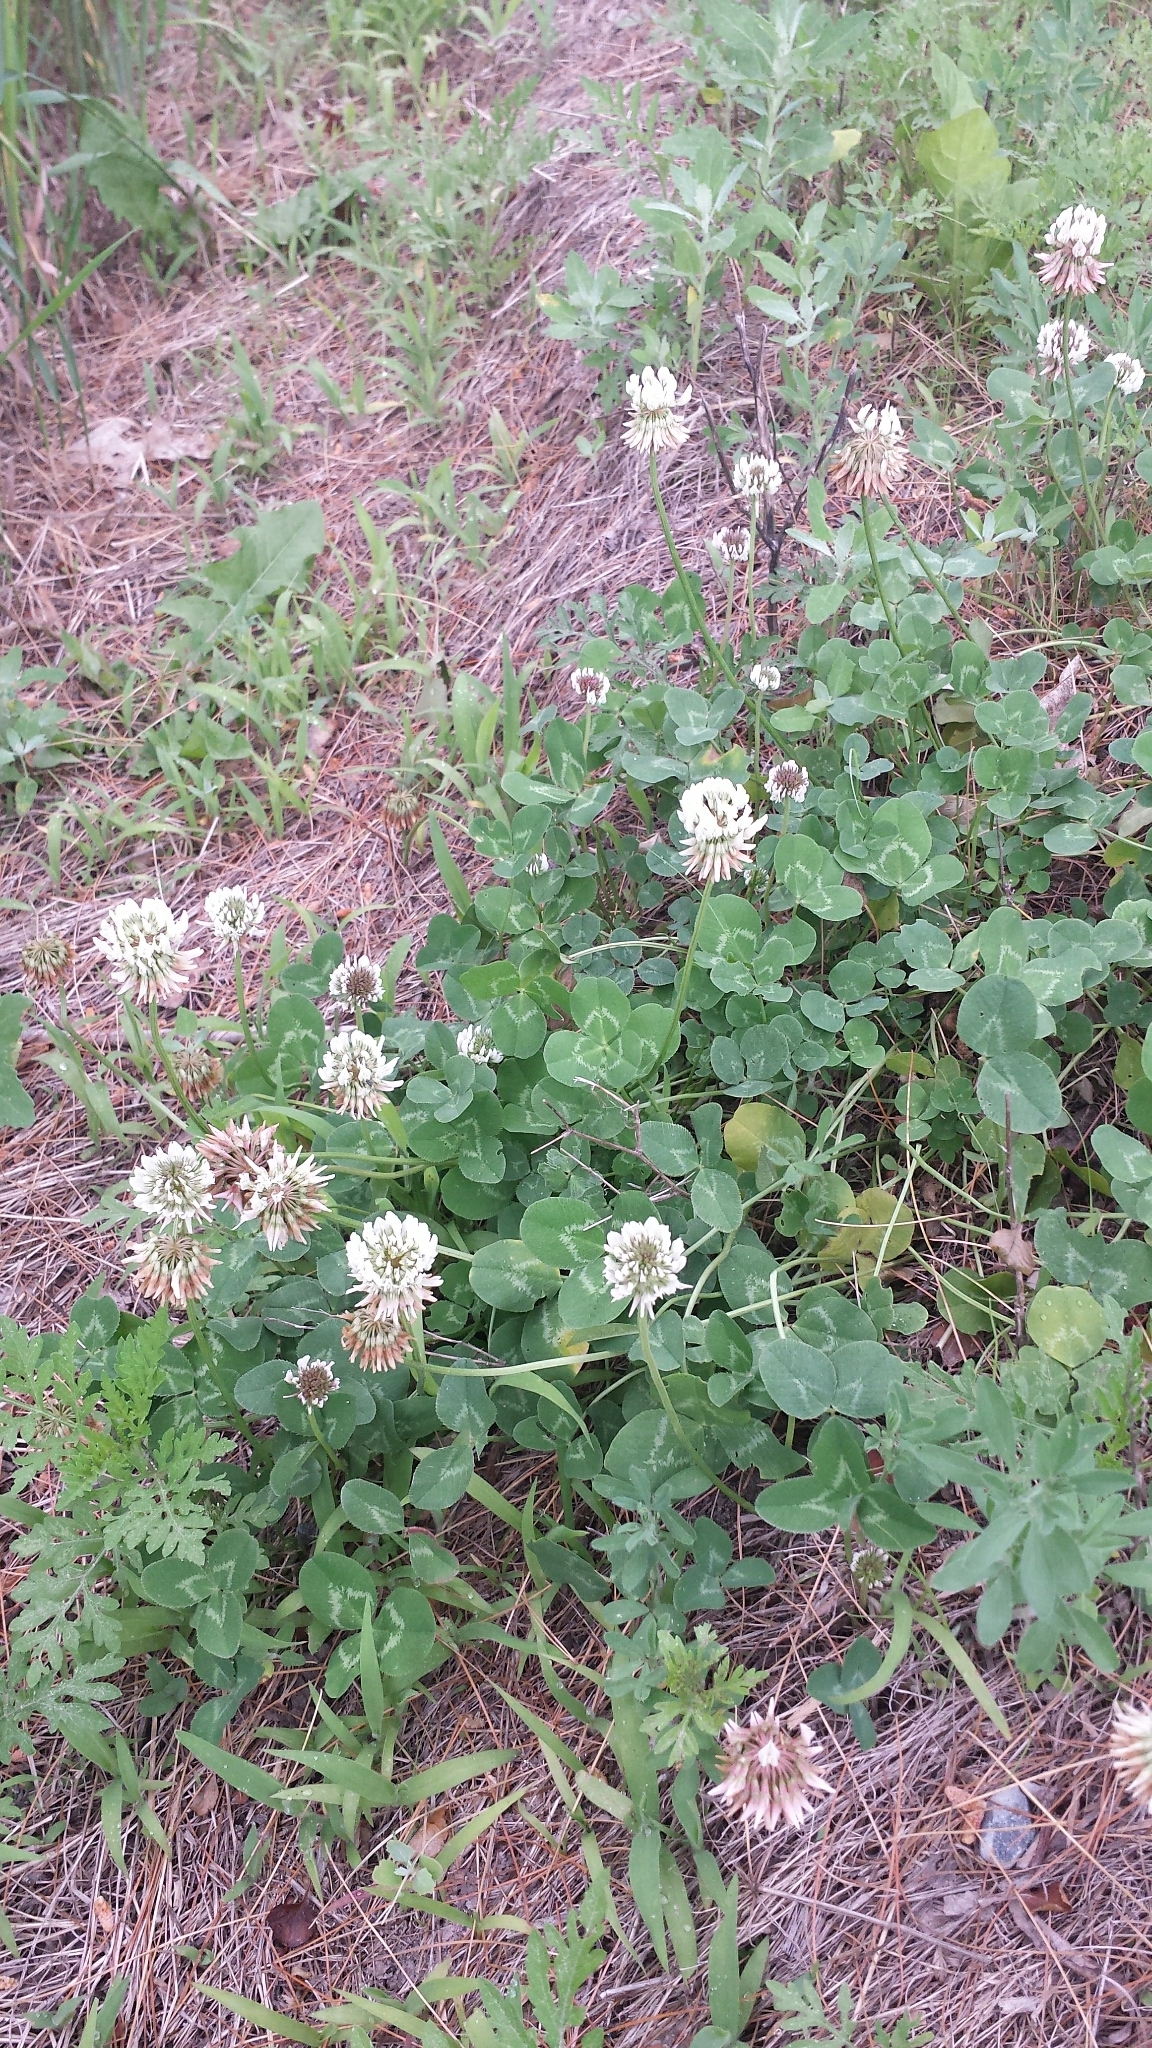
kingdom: Plantae
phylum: Tracheophyta
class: Magnoliopsida
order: Fabales
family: Fabaceae
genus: Trifolium
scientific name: Trifolium repens
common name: White clover
